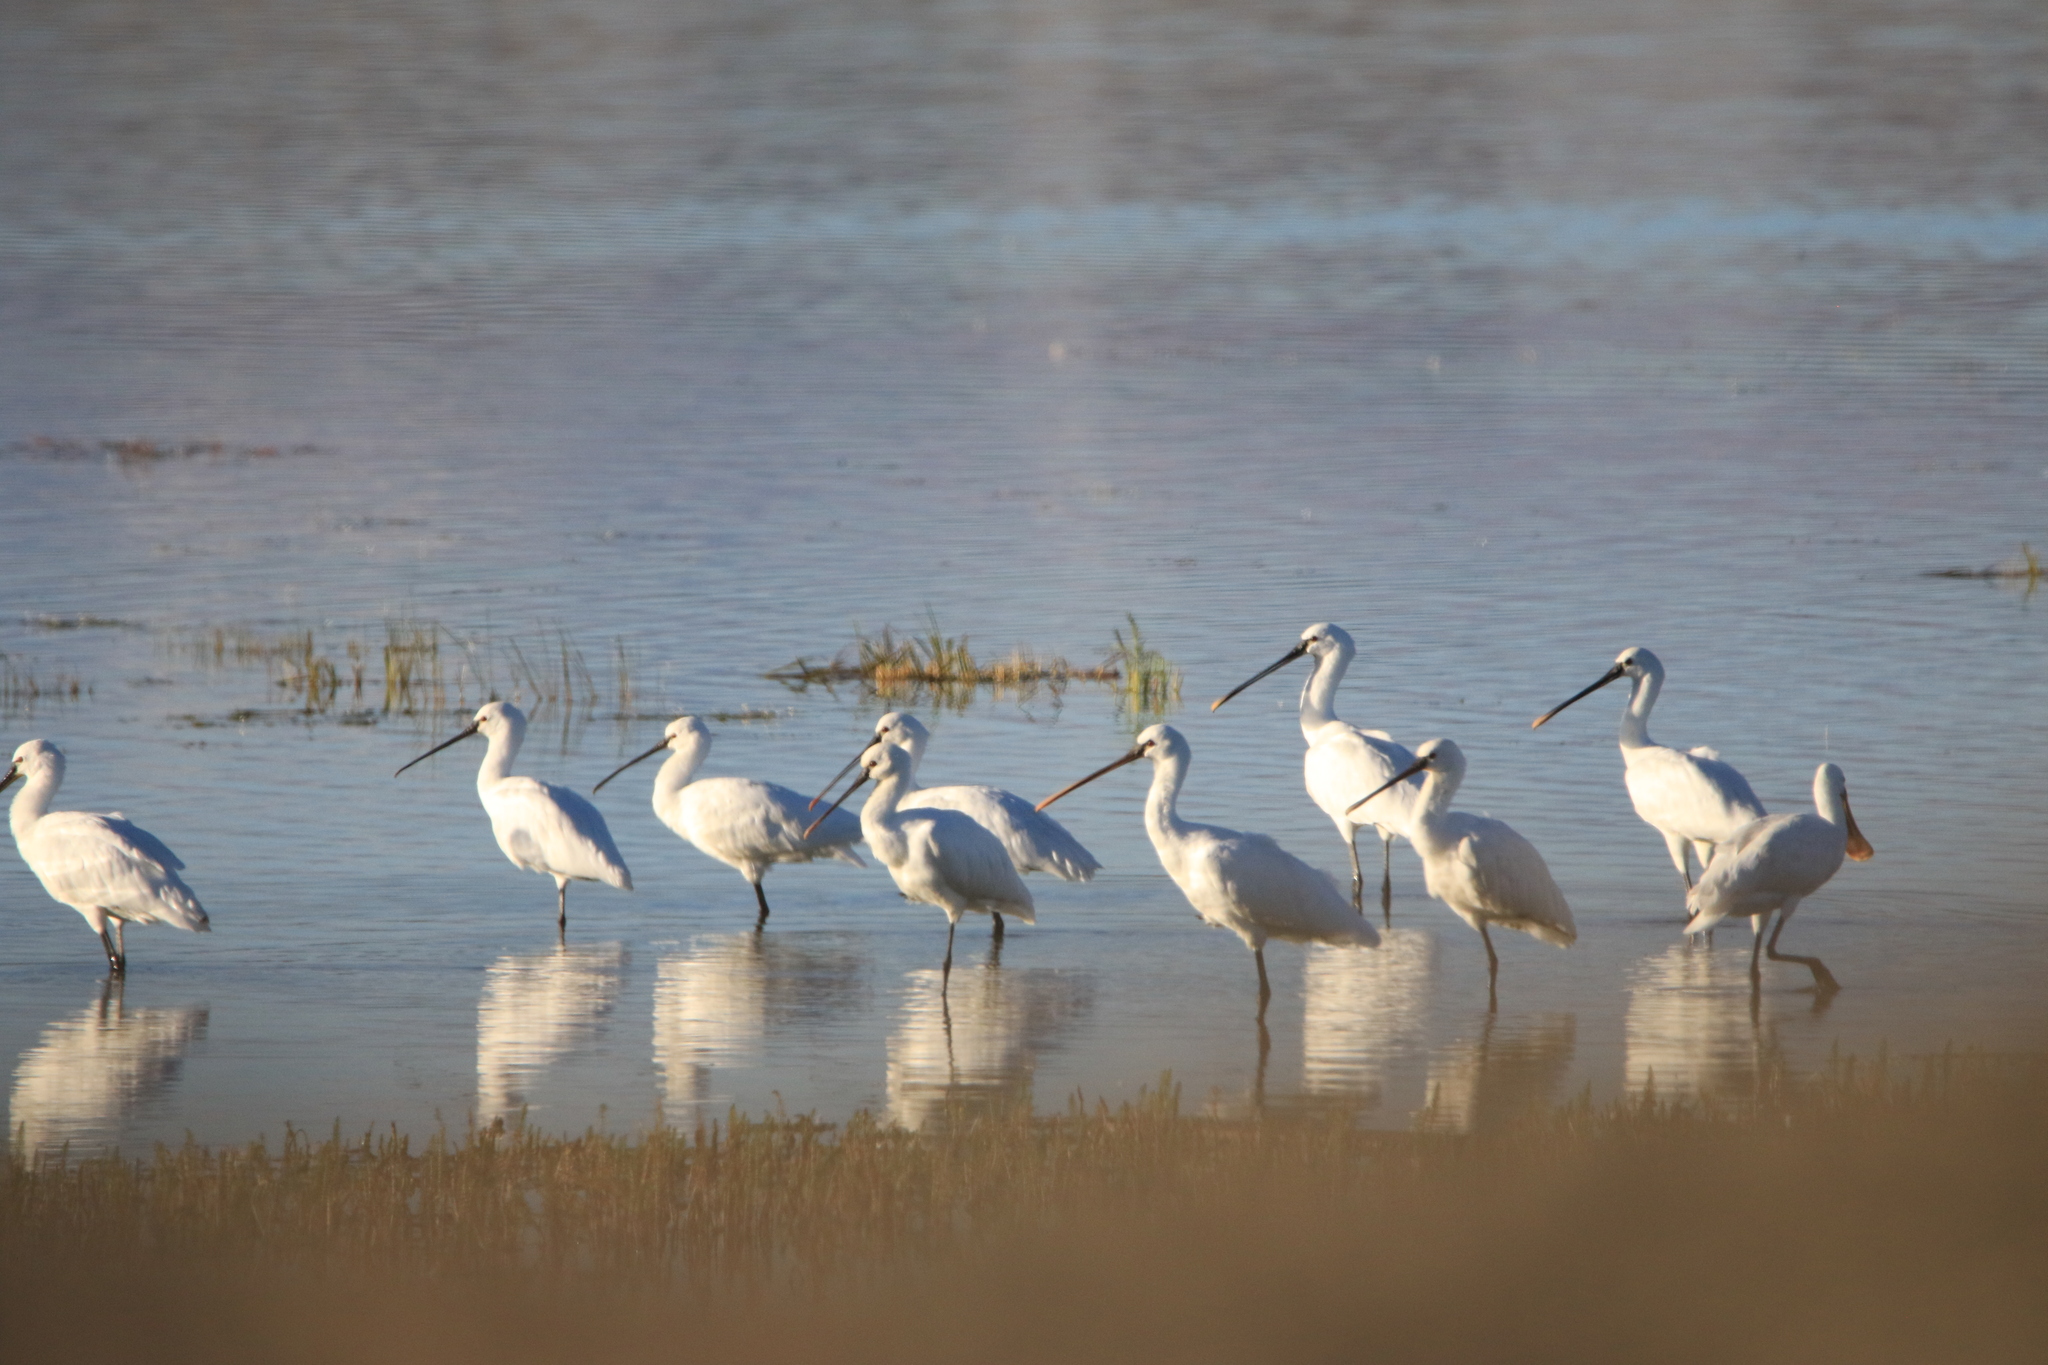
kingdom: Animalia
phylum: Chordata
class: Aves
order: Pelecaniformes
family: Threskiornithidae
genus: Platalea
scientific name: Platalea leucorodia
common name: Eurasian spoonbill
